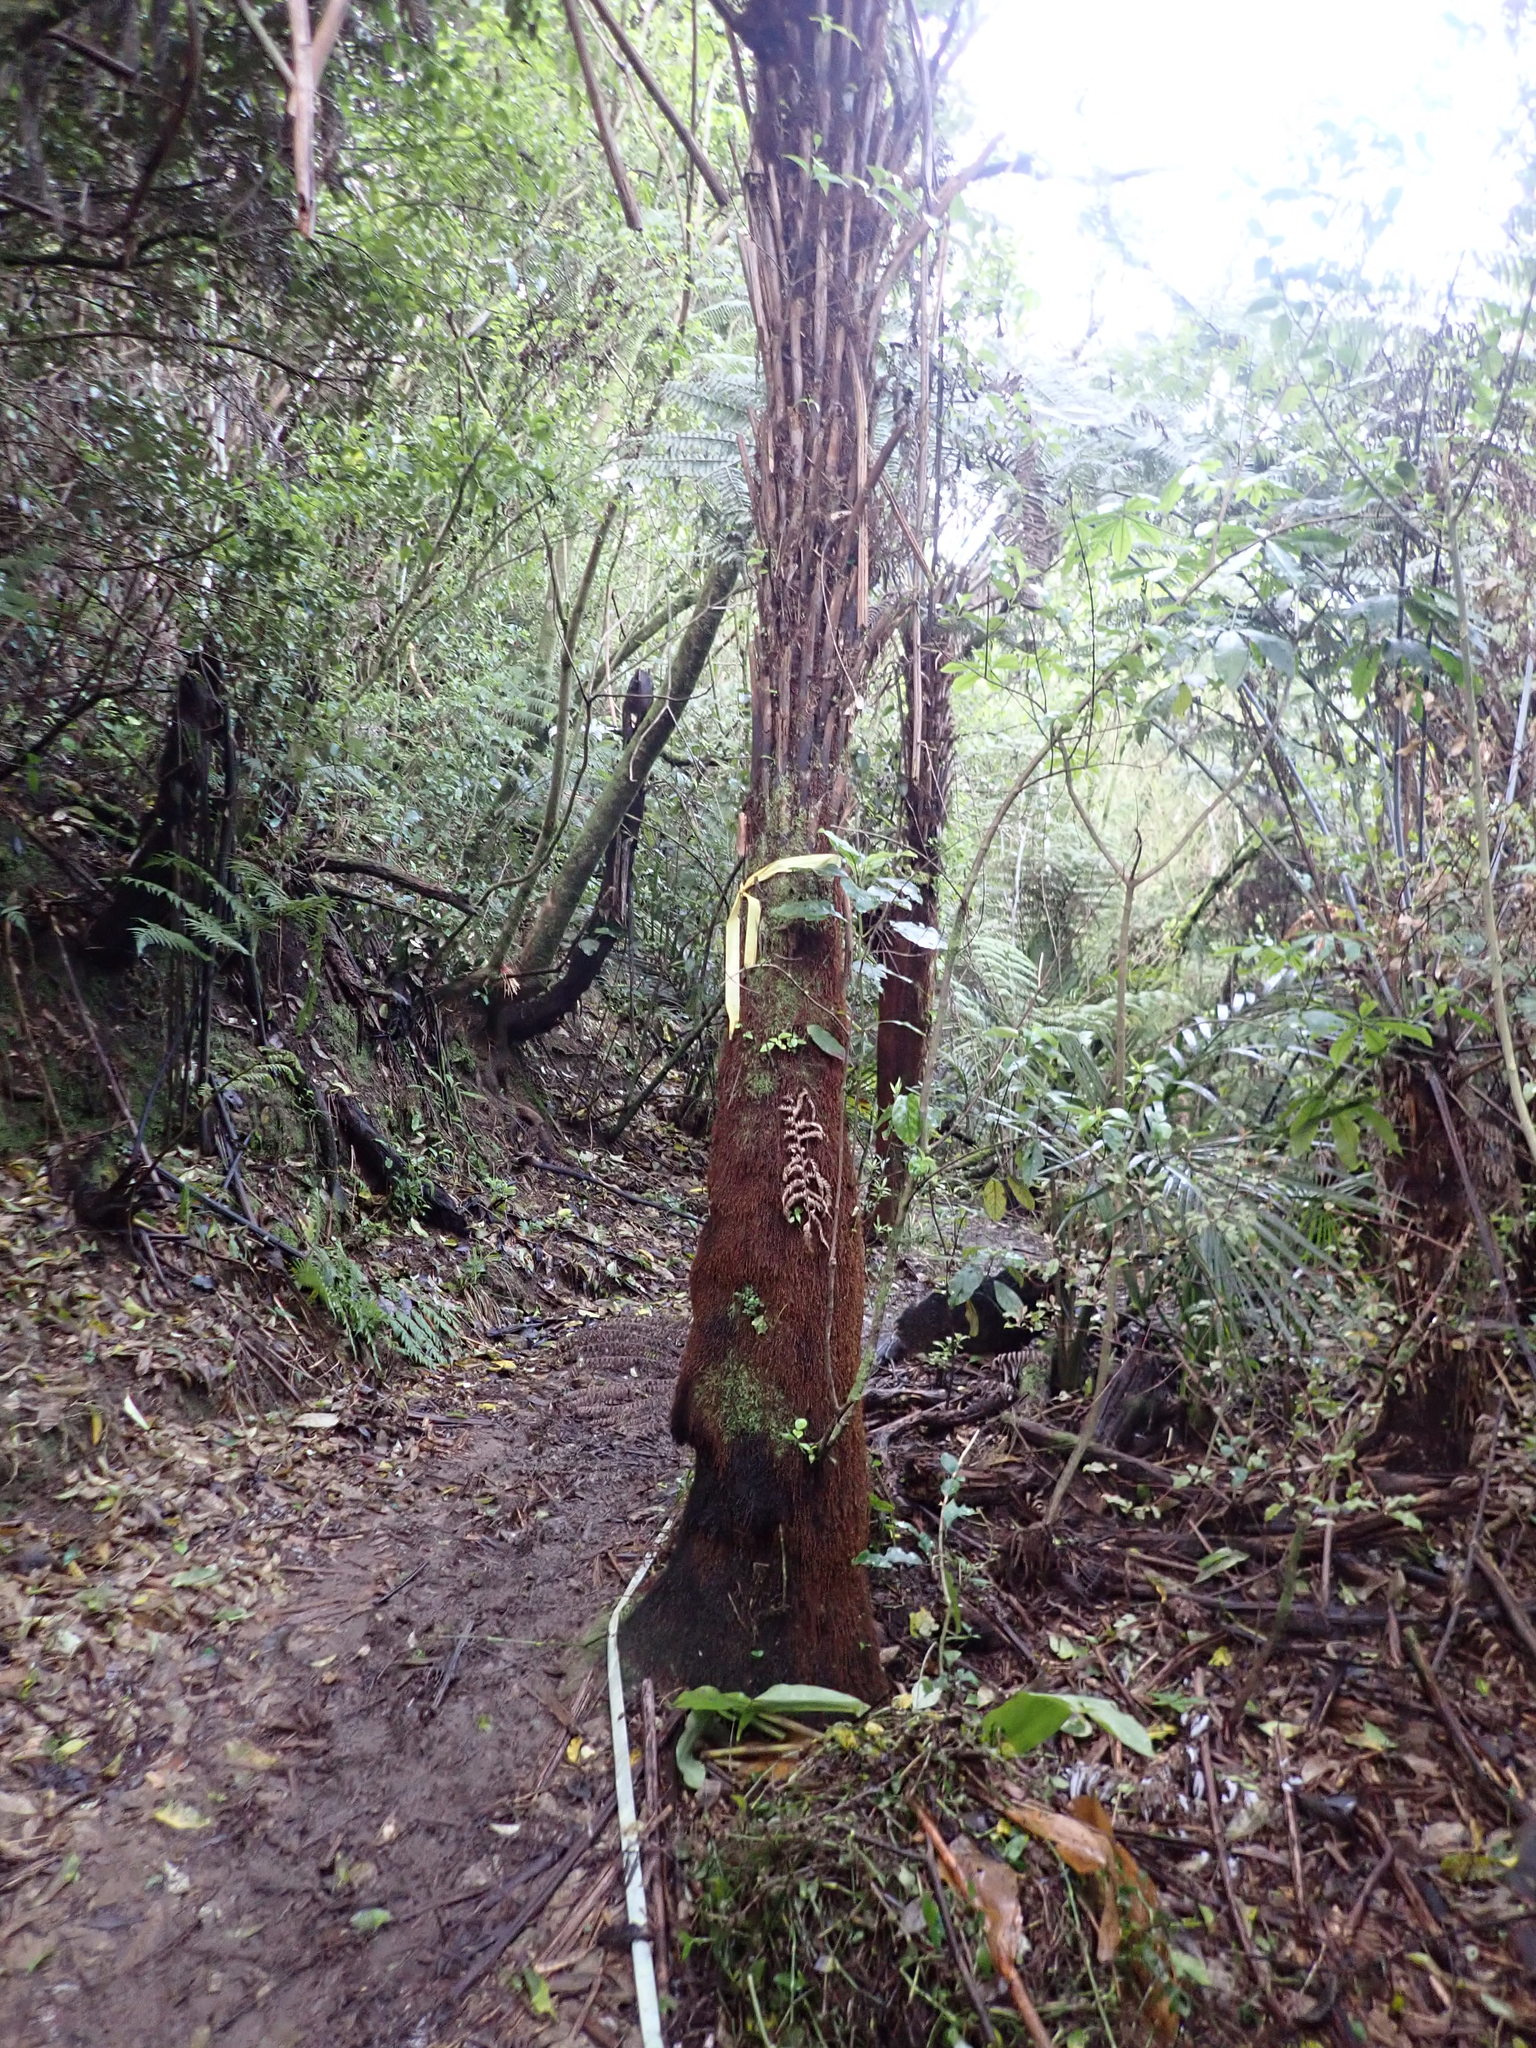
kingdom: Plantae
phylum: Tracheophyta
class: Magnoliopsida
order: Apiales
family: Araliaceae
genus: Schefflera
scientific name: Schefflera digitata
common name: Pate
